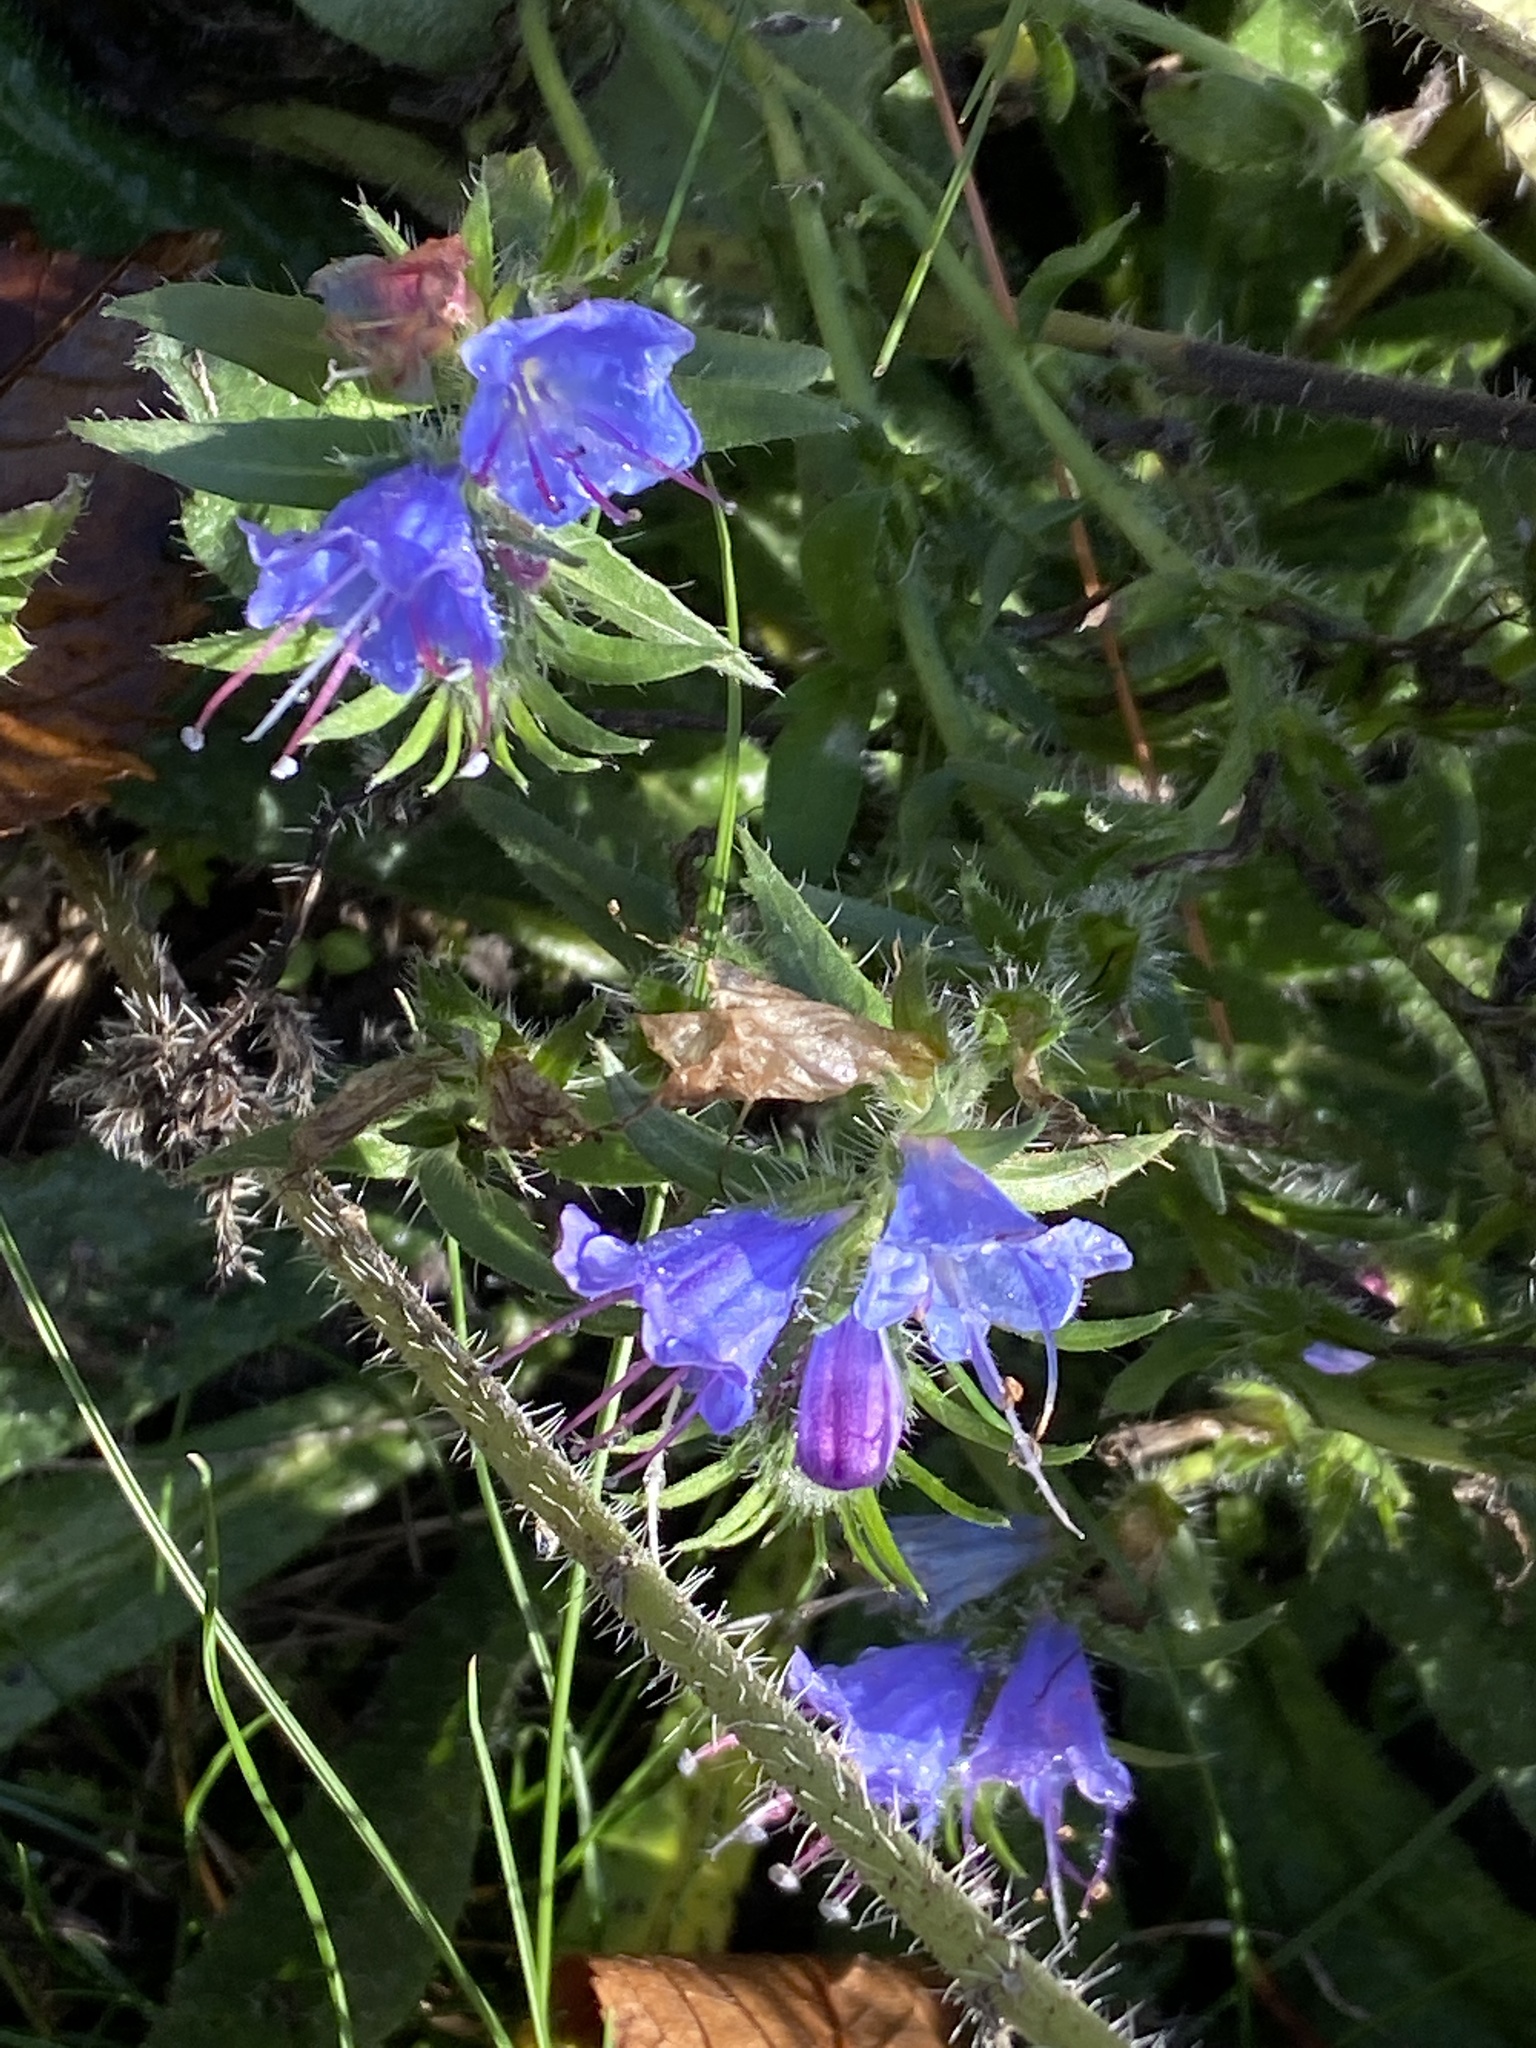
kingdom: Plantae
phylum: Tracheophyta
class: Magnoliopsida
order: Boraginales
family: Boraginaceae
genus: Echium
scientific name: Echium vulgare
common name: Common viper's bugloss
